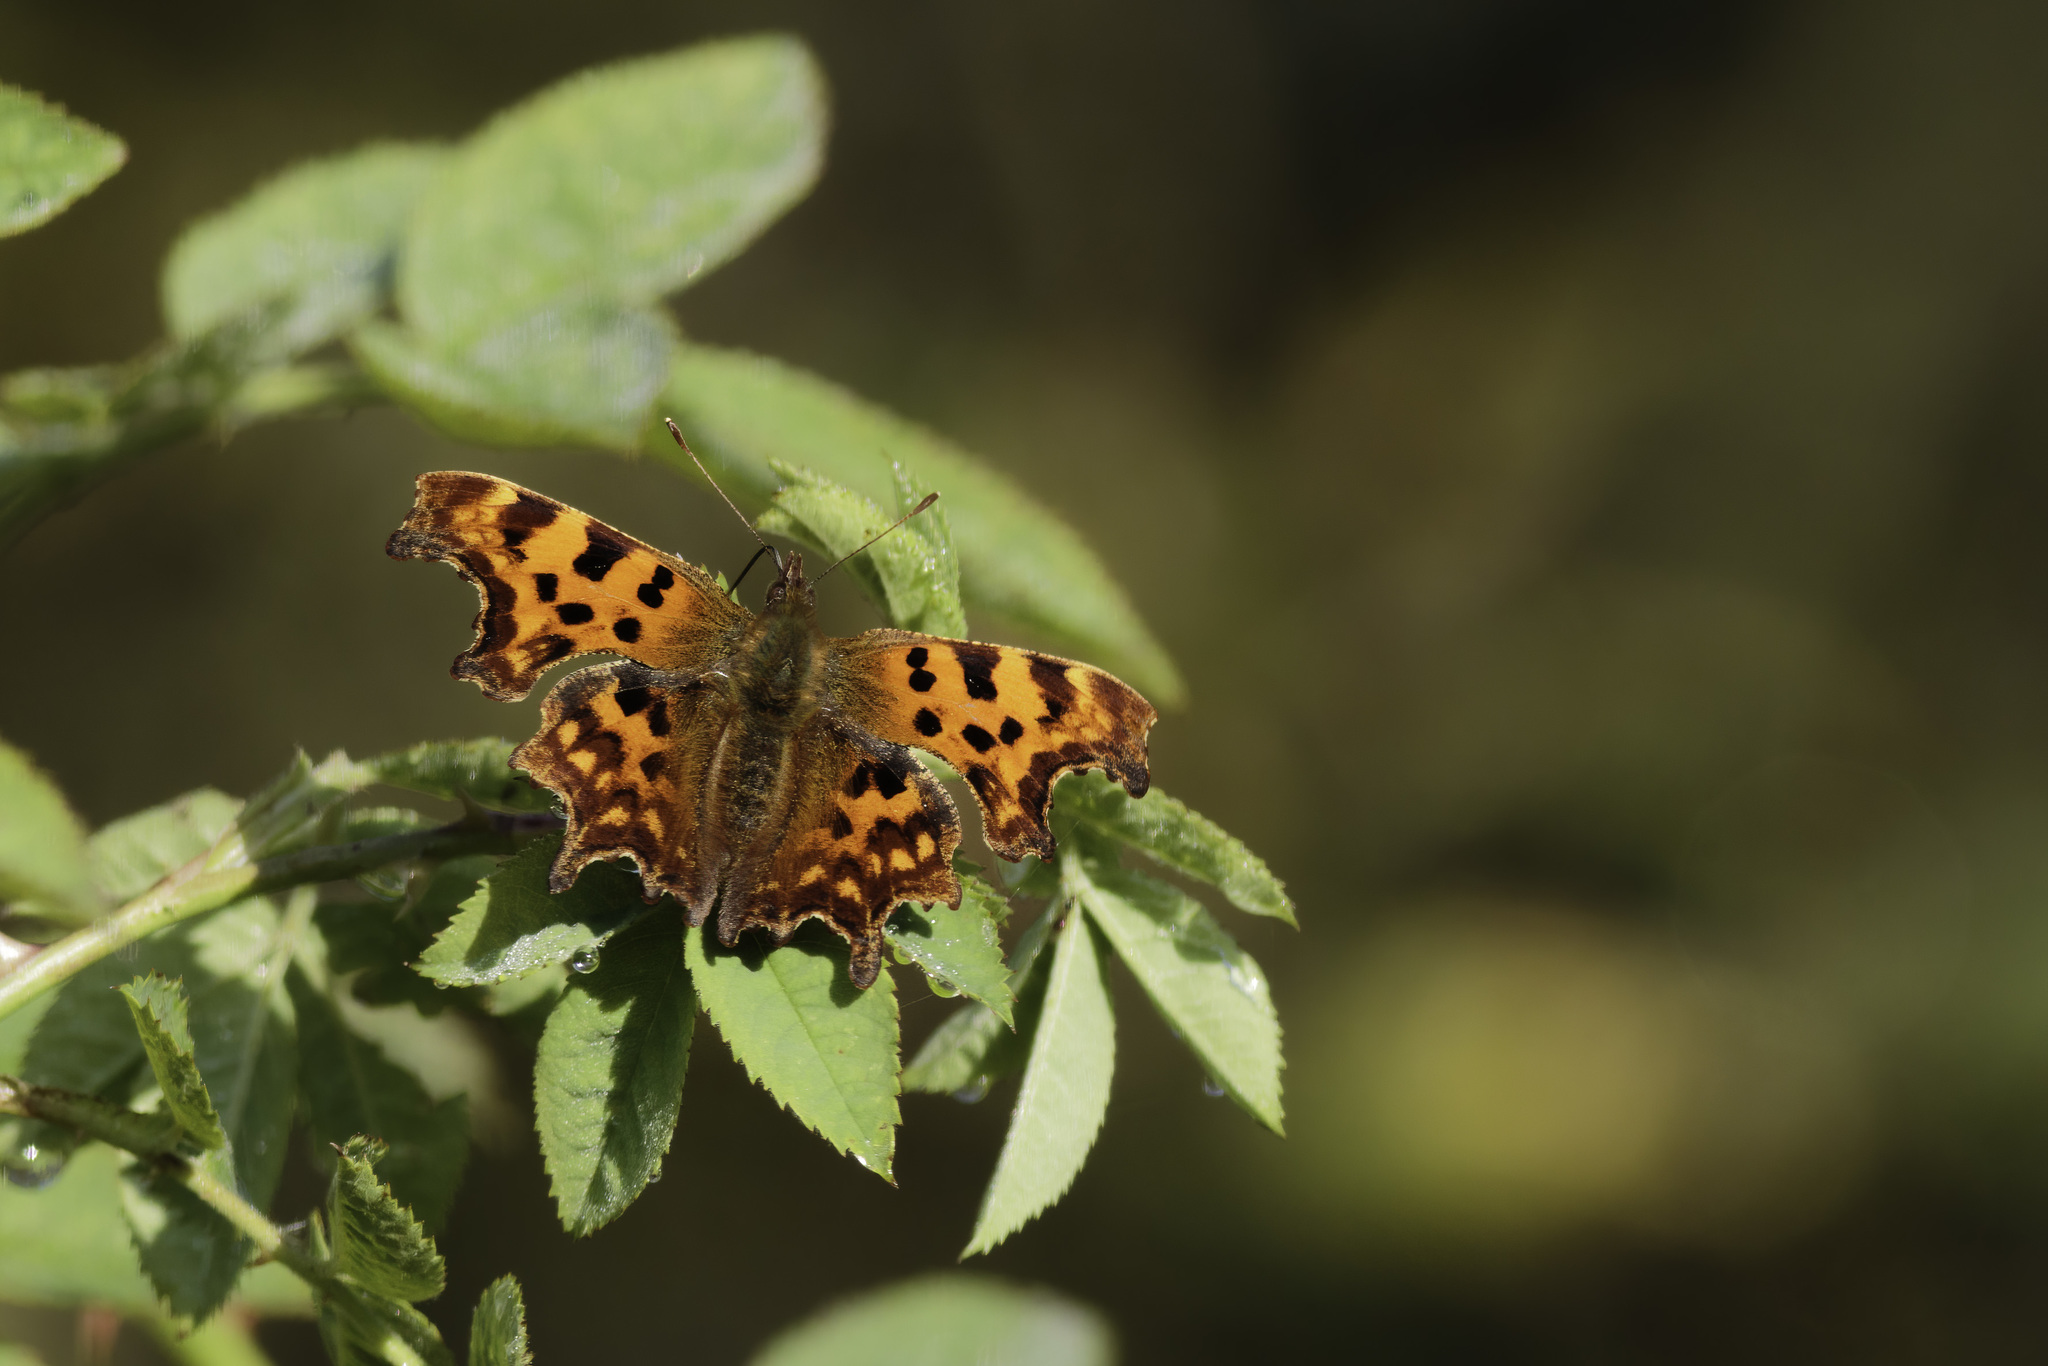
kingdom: Animalia
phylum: Arthropoda
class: Insecta
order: Lepidoptera
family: Nymphalidae
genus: Polygonia
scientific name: Polygonia c-album
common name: Comma
